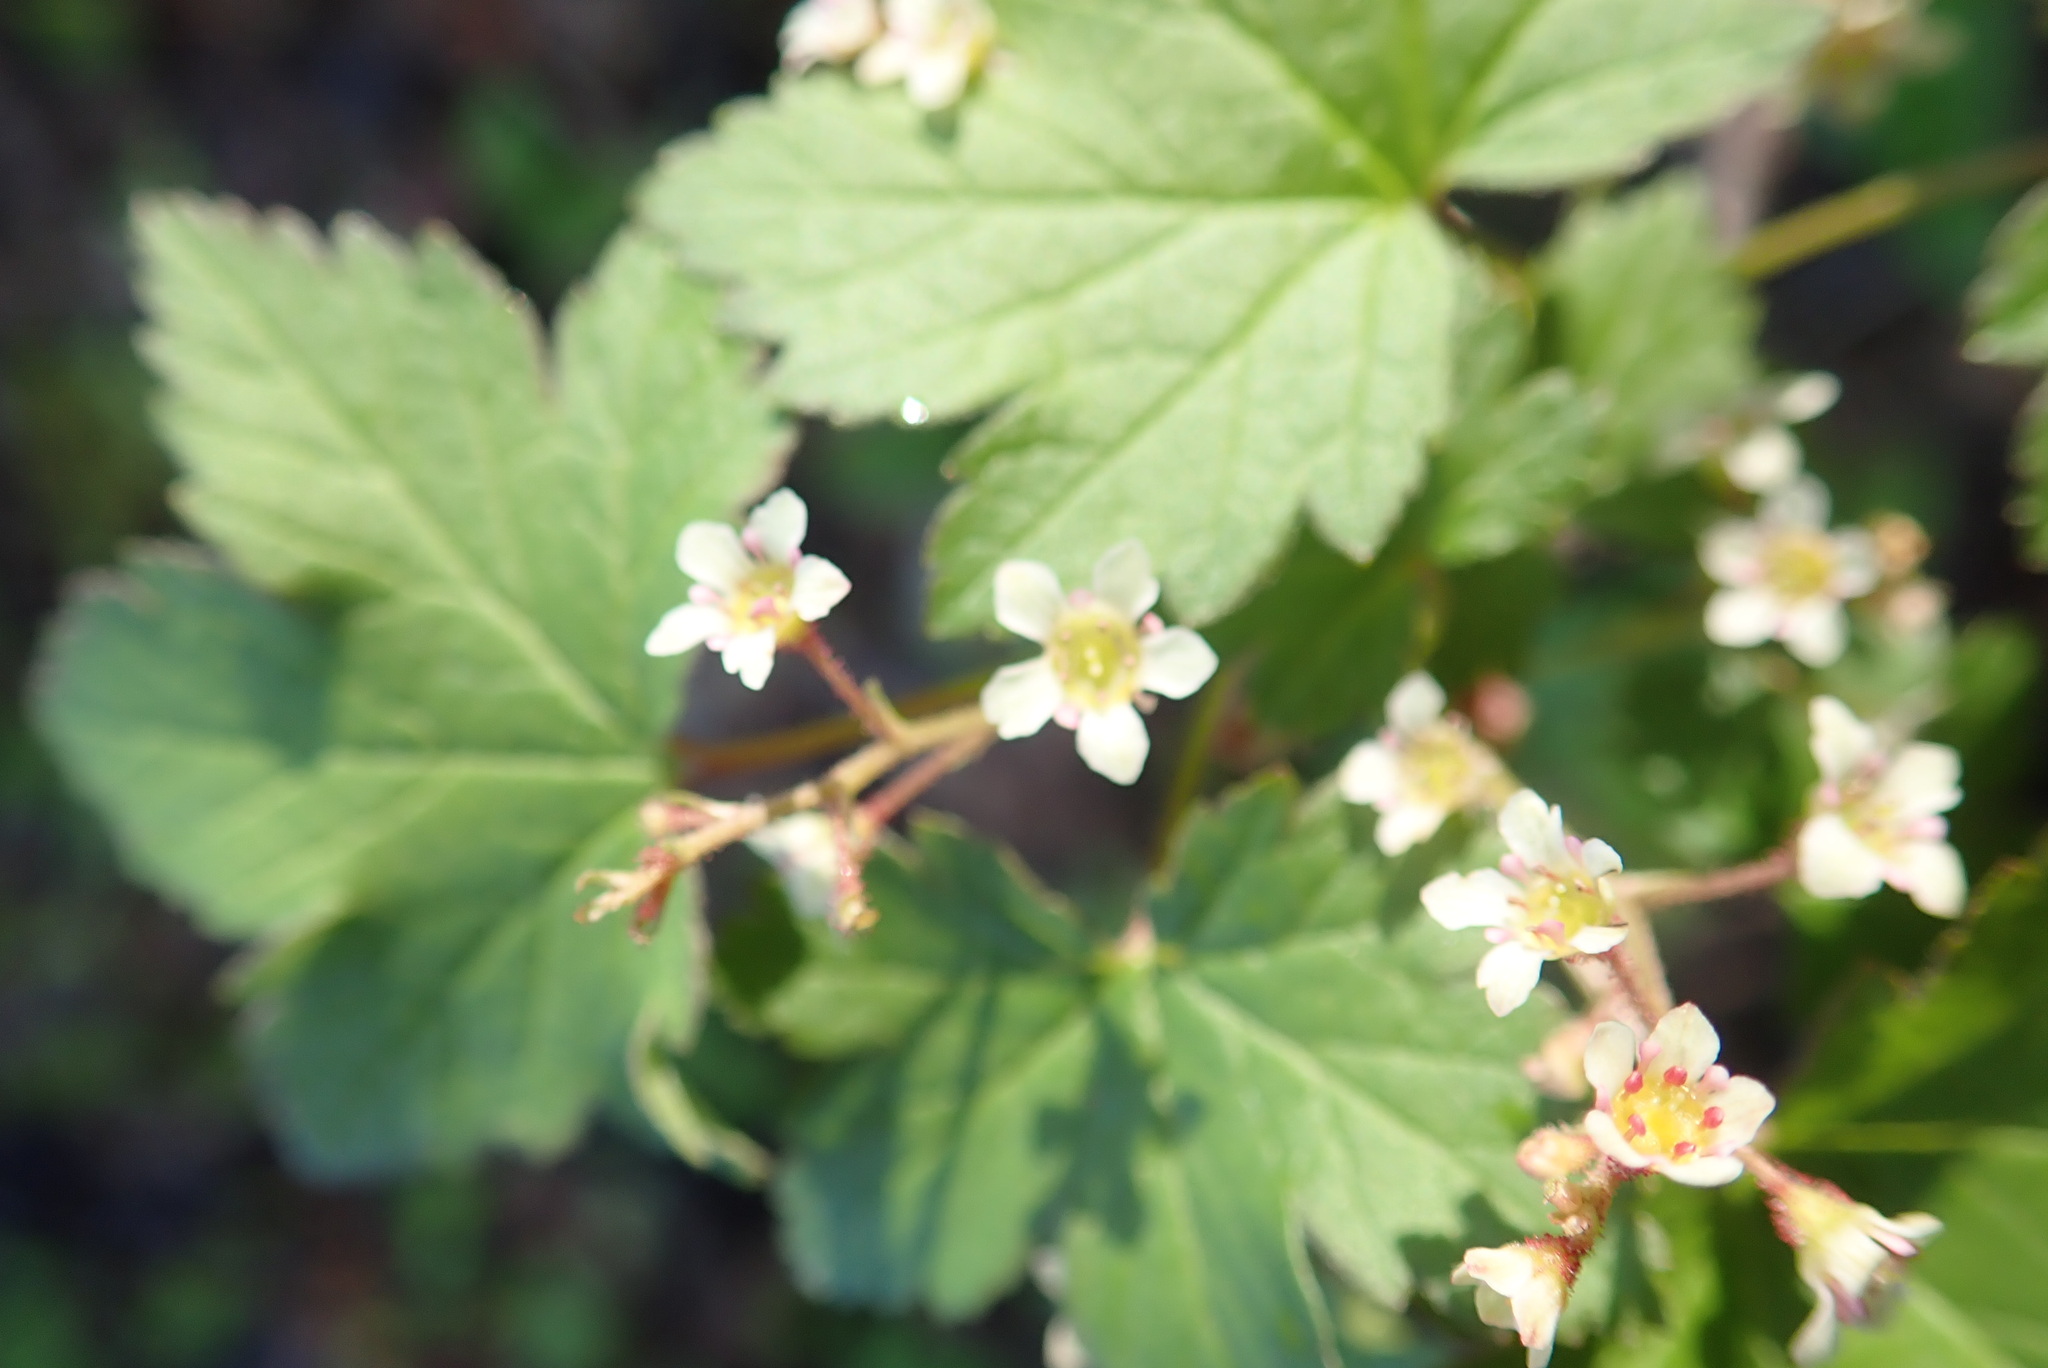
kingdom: Plantae
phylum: Tracheophyta
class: Magnoliopsida
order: Saxifragales
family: Grossulariaceae
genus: Ribes
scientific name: Ribes glandulosum
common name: Skunk currant
